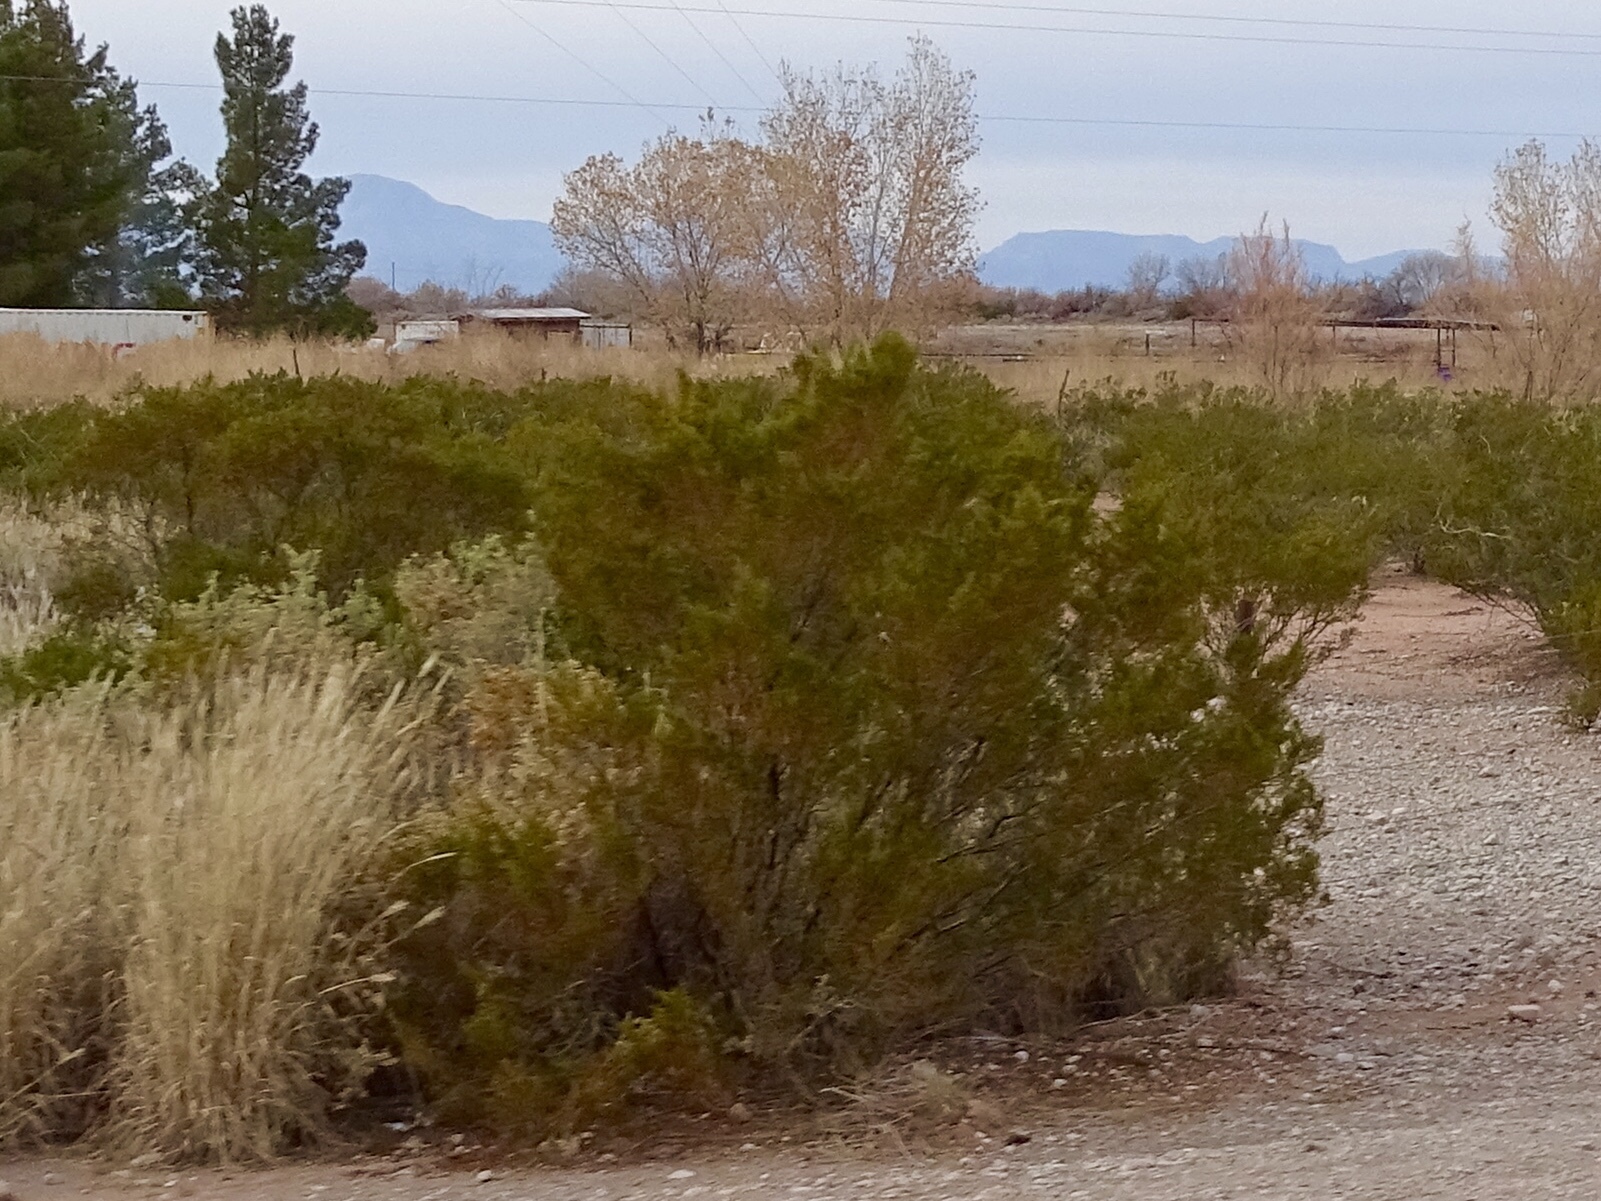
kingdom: Plantae
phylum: Tracheophyta
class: Magnoliopsida
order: Zygophyllales
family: Zygophyllaceae
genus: Larrea
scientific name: Larrea tridentata
